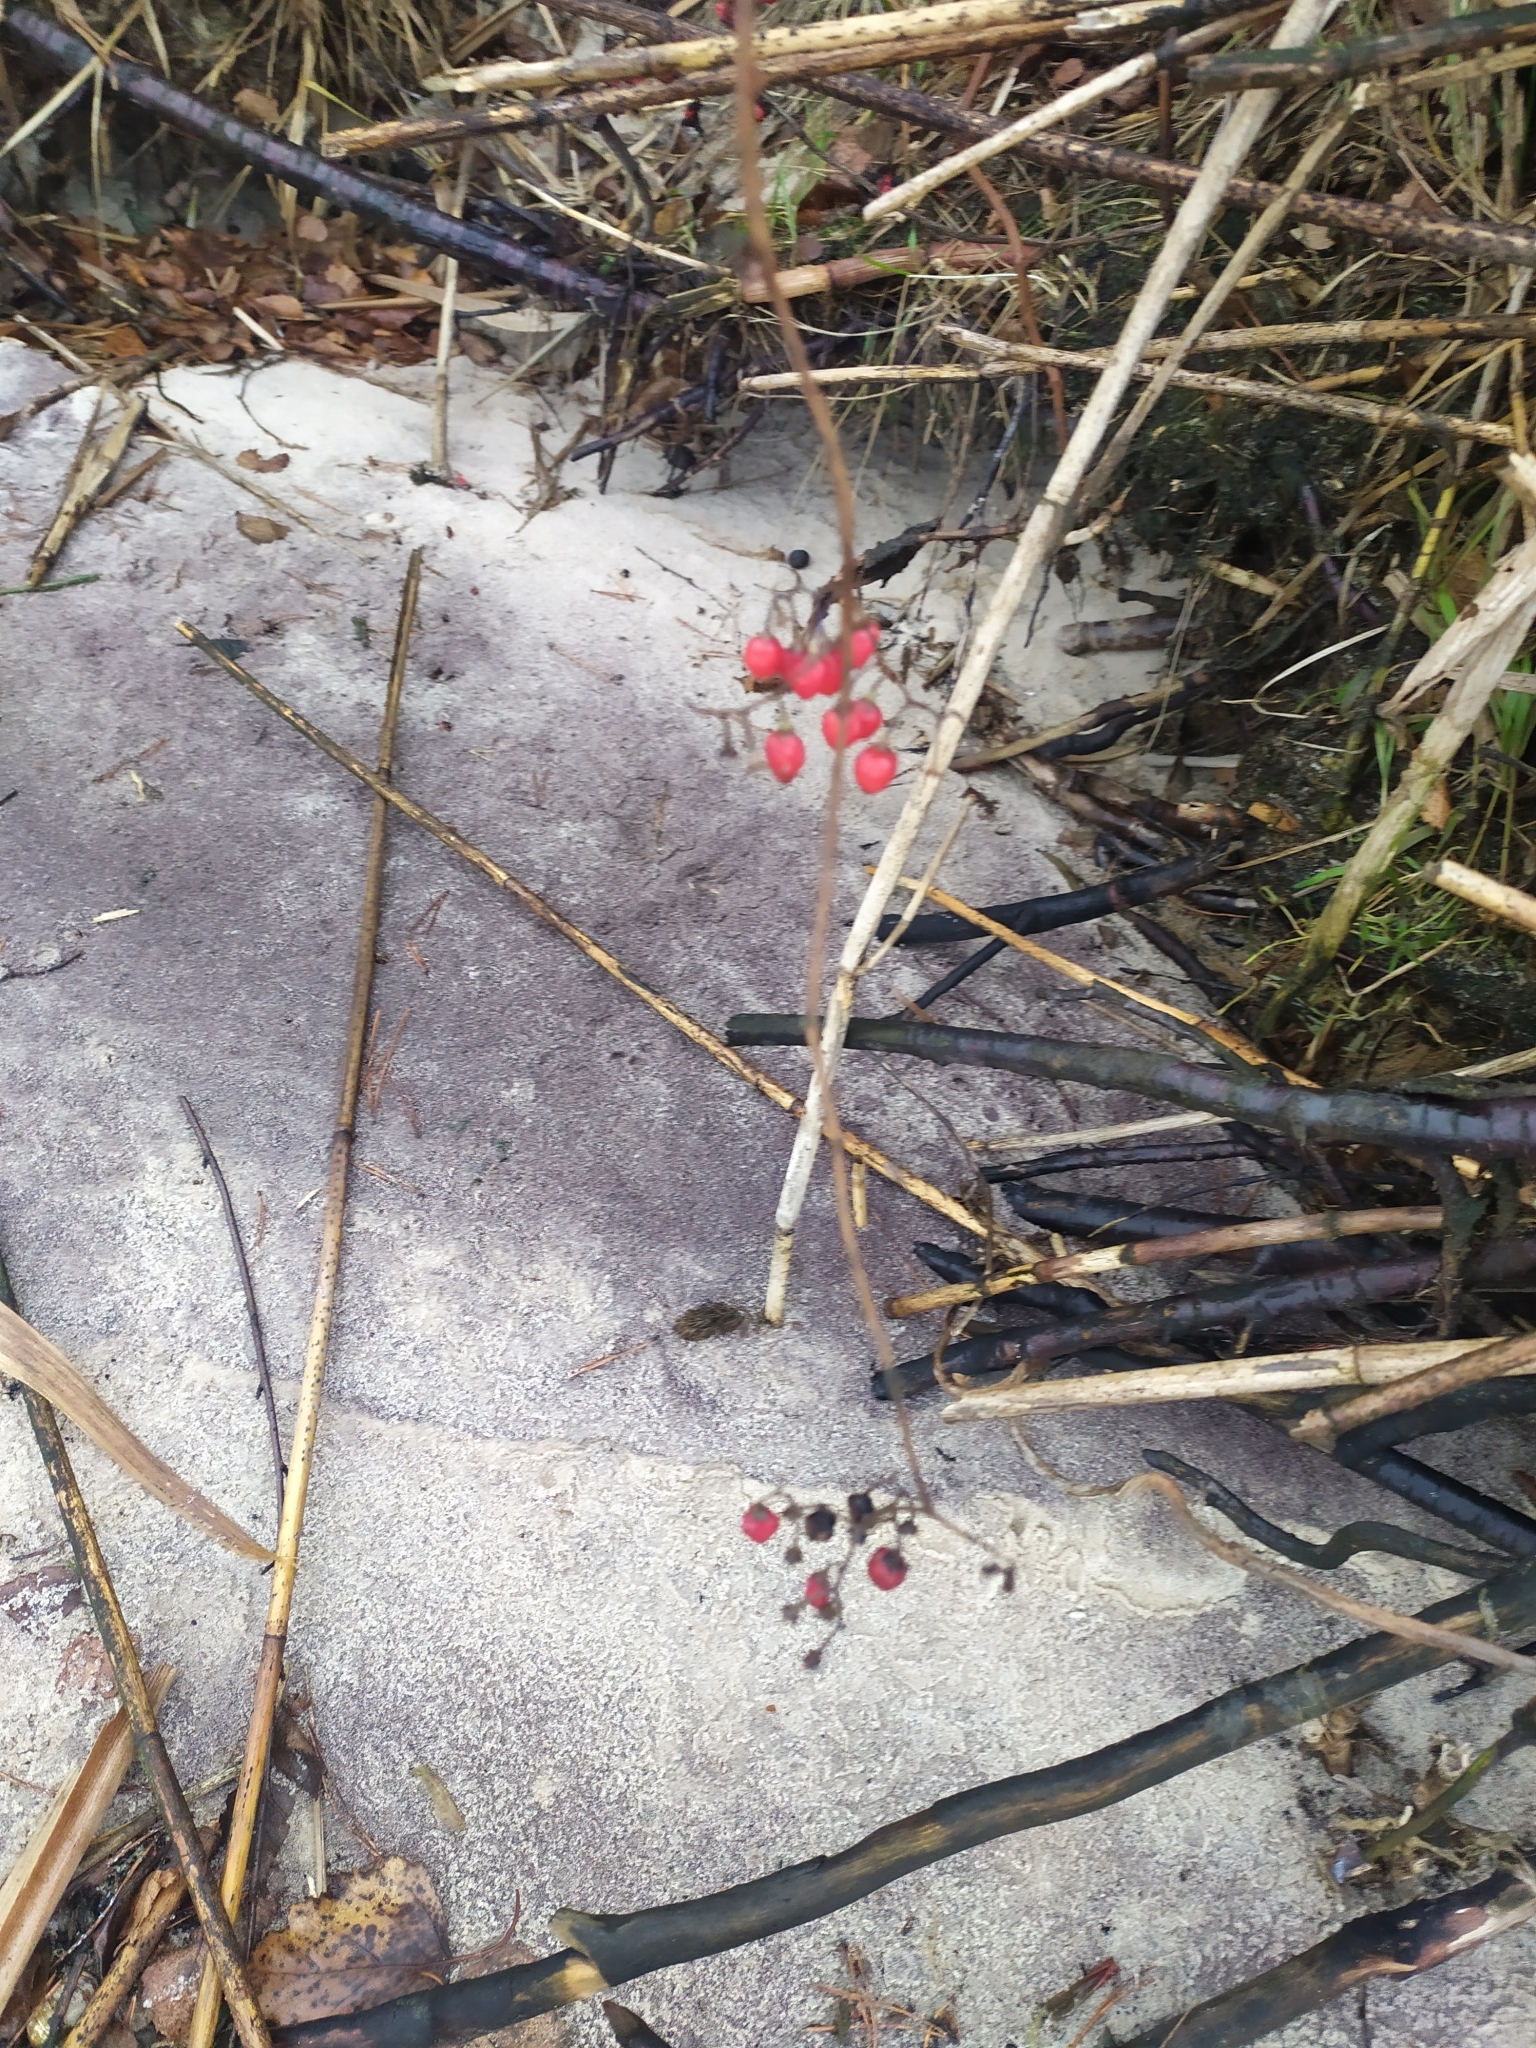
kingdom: Plantae
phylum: Tracheophyta
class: Magnoliopsida
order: Solanales
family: Solanaceae
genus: Solanum
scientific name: Solanum dulcamara
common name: Climbing nightshade
